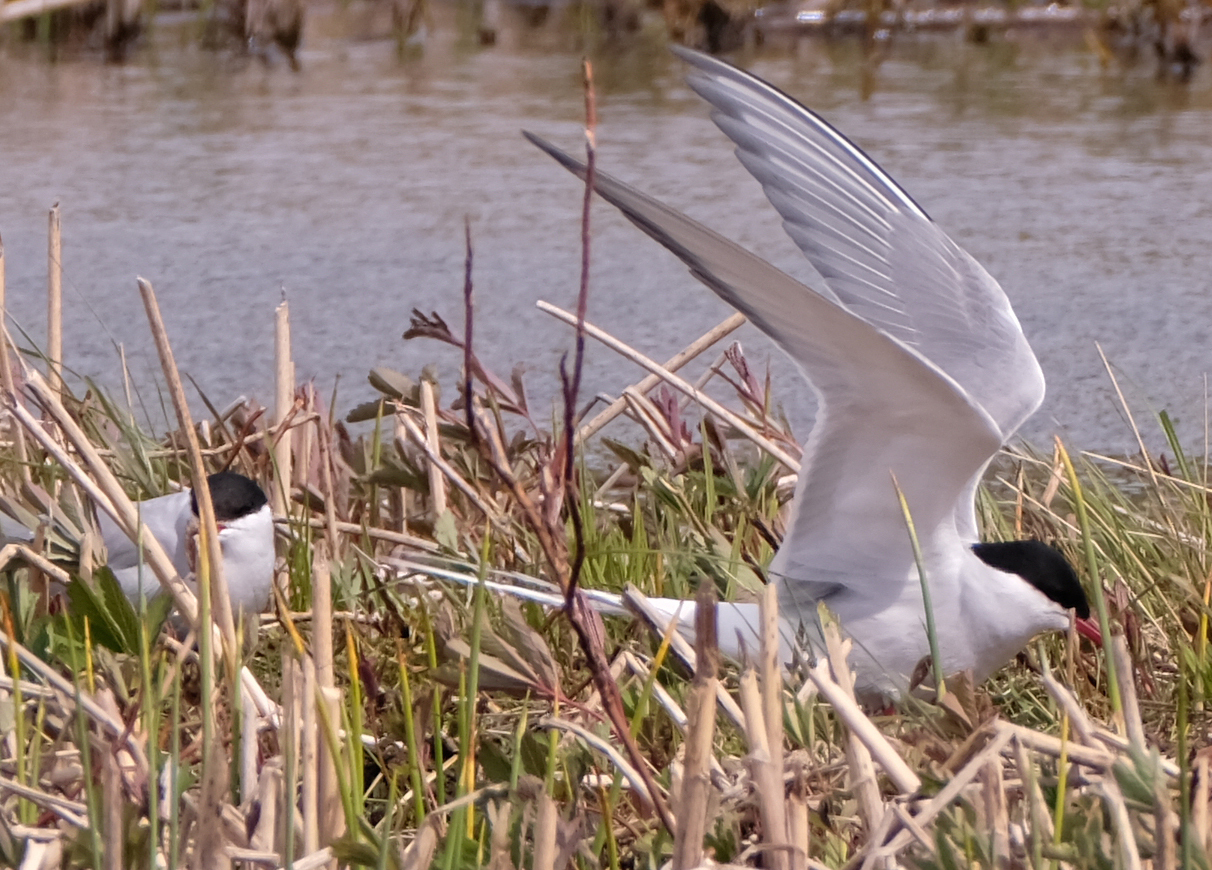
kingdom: Animalia
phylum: Chordata
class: Aves
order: Charadriiformes
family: Laridae
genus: Sterna
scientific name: Sterna paradisaea
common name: Arctic tern
